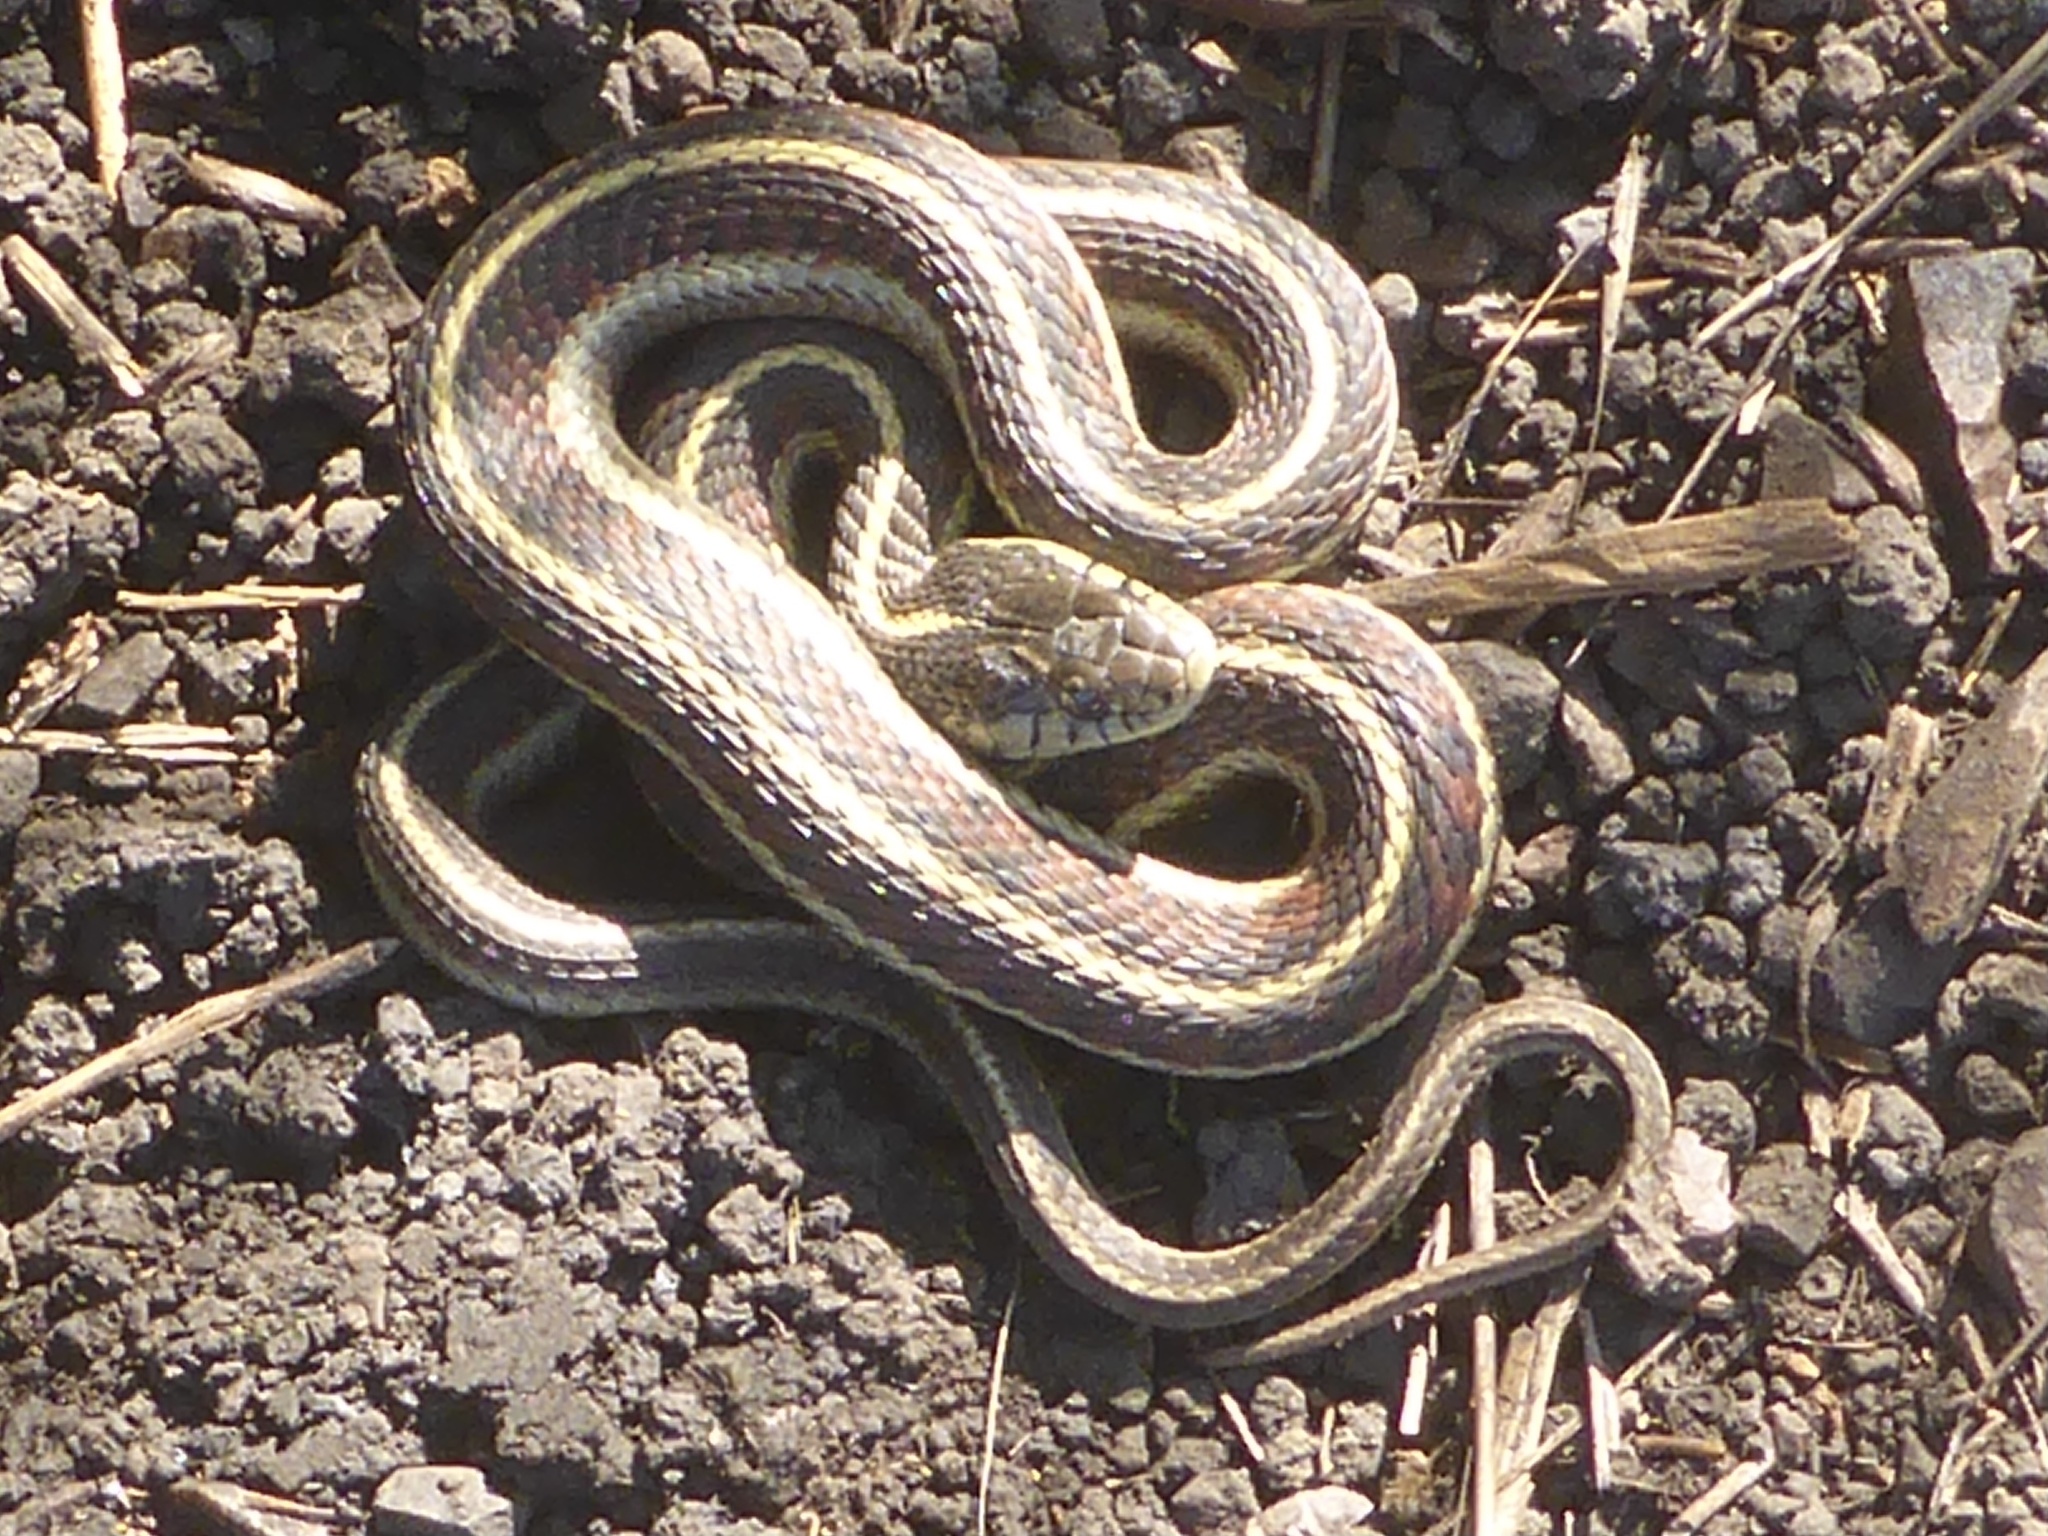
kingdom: Animalia
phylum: Chordata
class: Squamata
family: Colubridae
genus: Thamnophis
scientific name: Thamnophis elegans
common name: Western terrestrial garter snake
